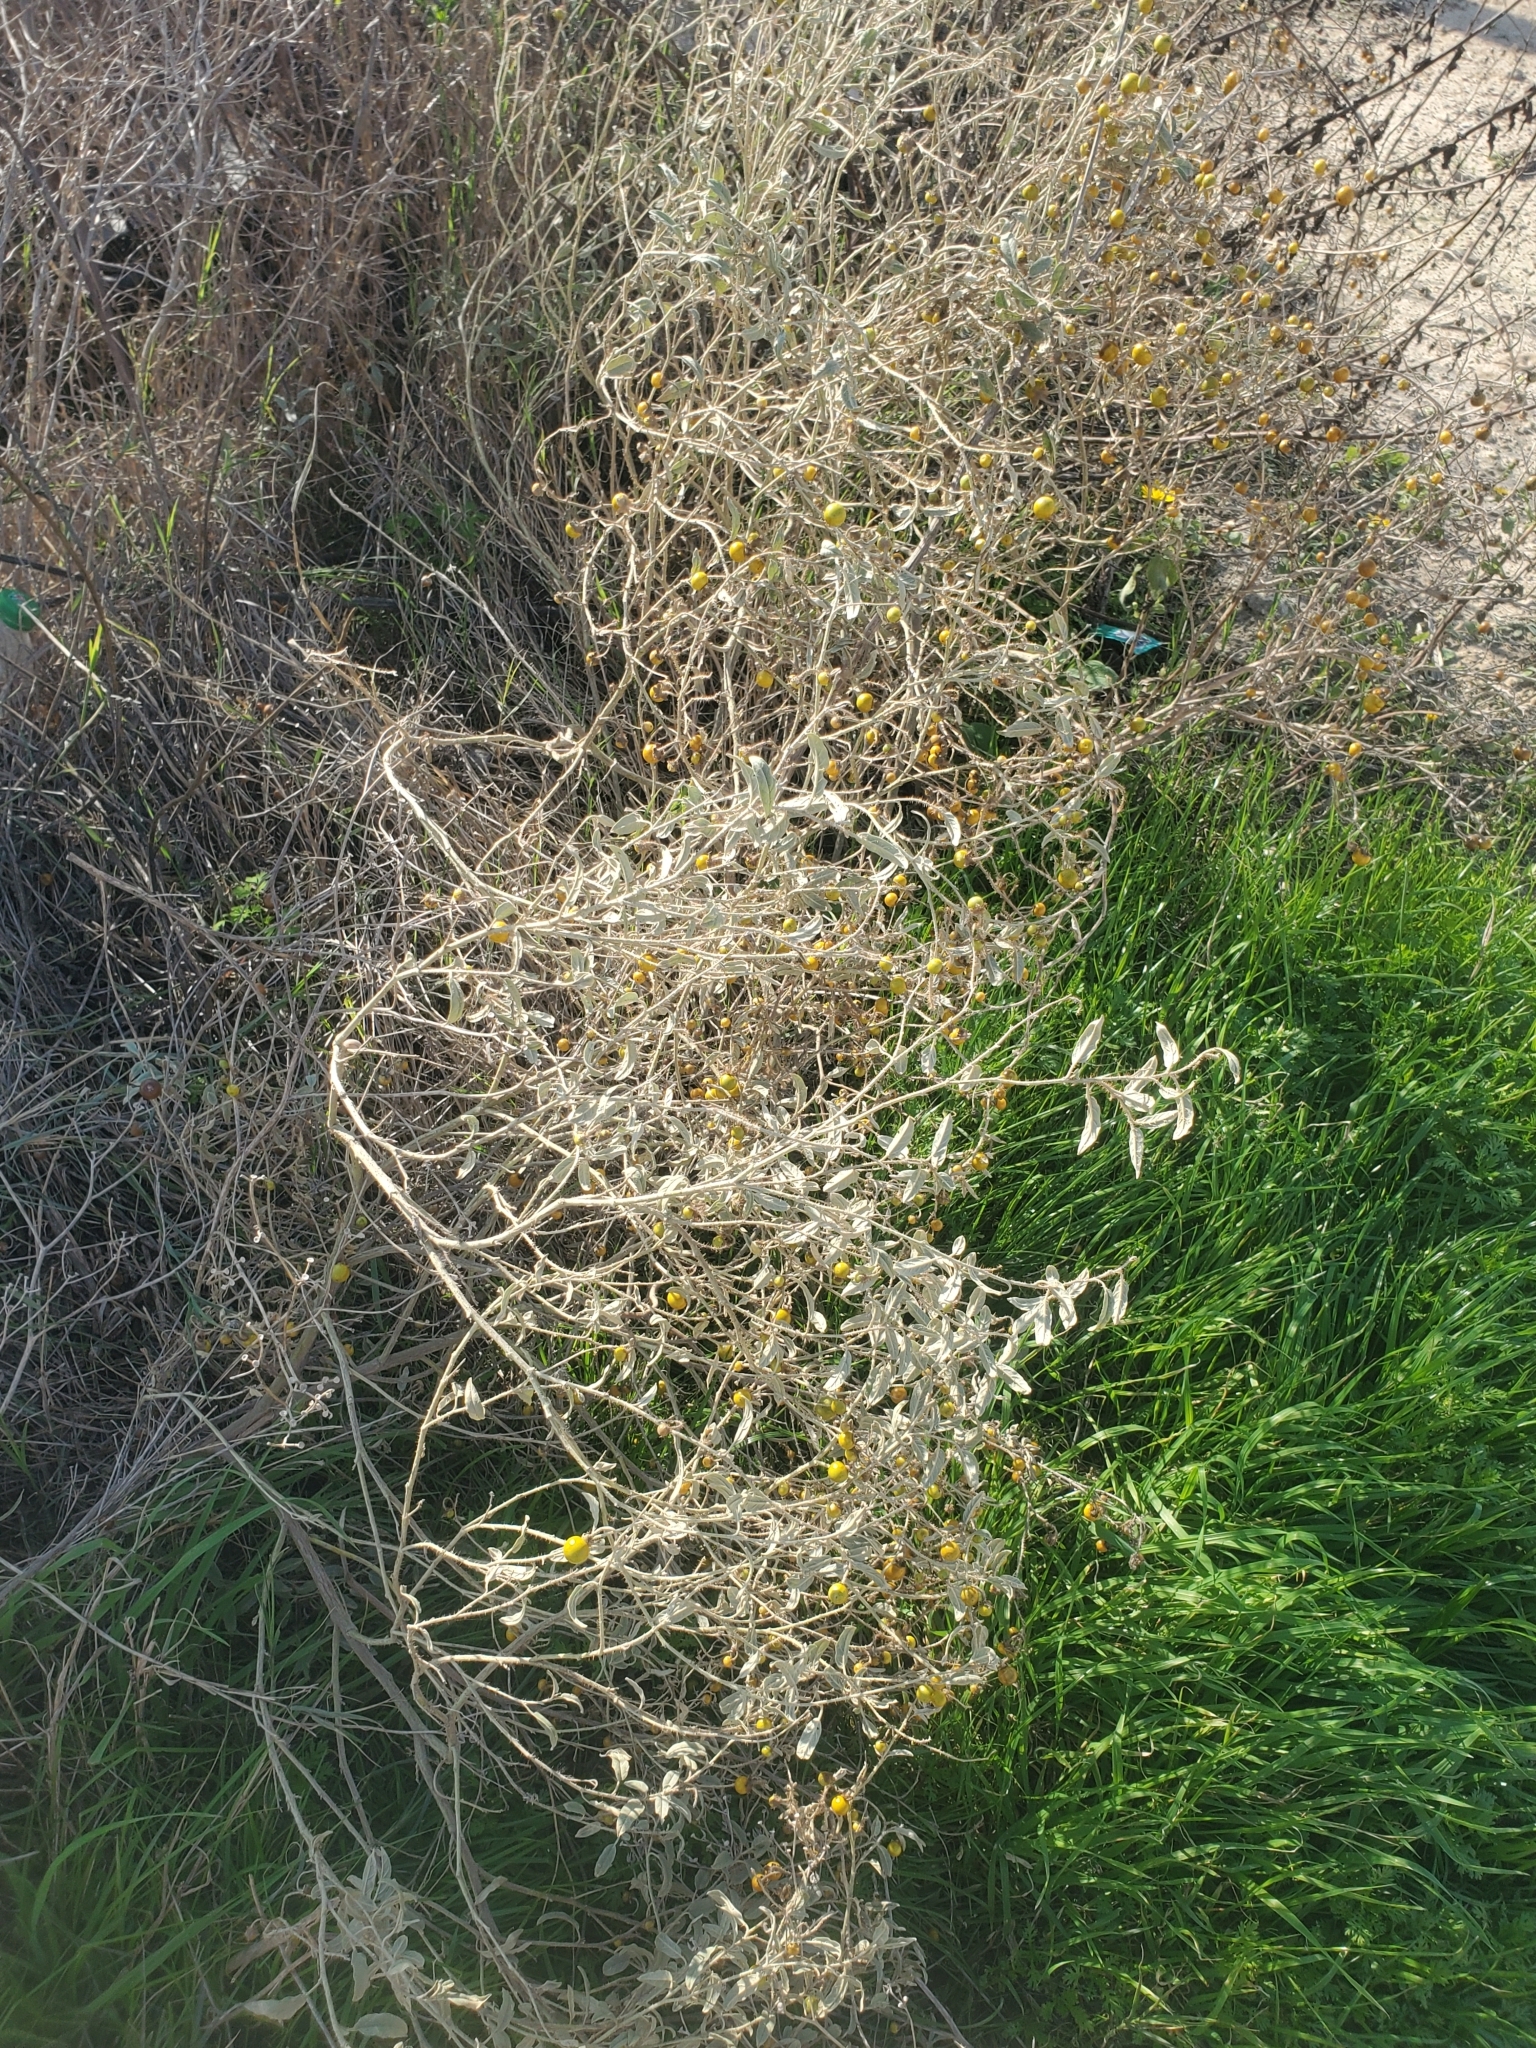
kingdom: Plantae
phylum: Tracheophyta
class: Magnoliopsida
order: Solanales
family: Solanaceae
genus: Solanum
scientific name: Solanum elaeagnifolium
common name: Silverleaf nightshade
